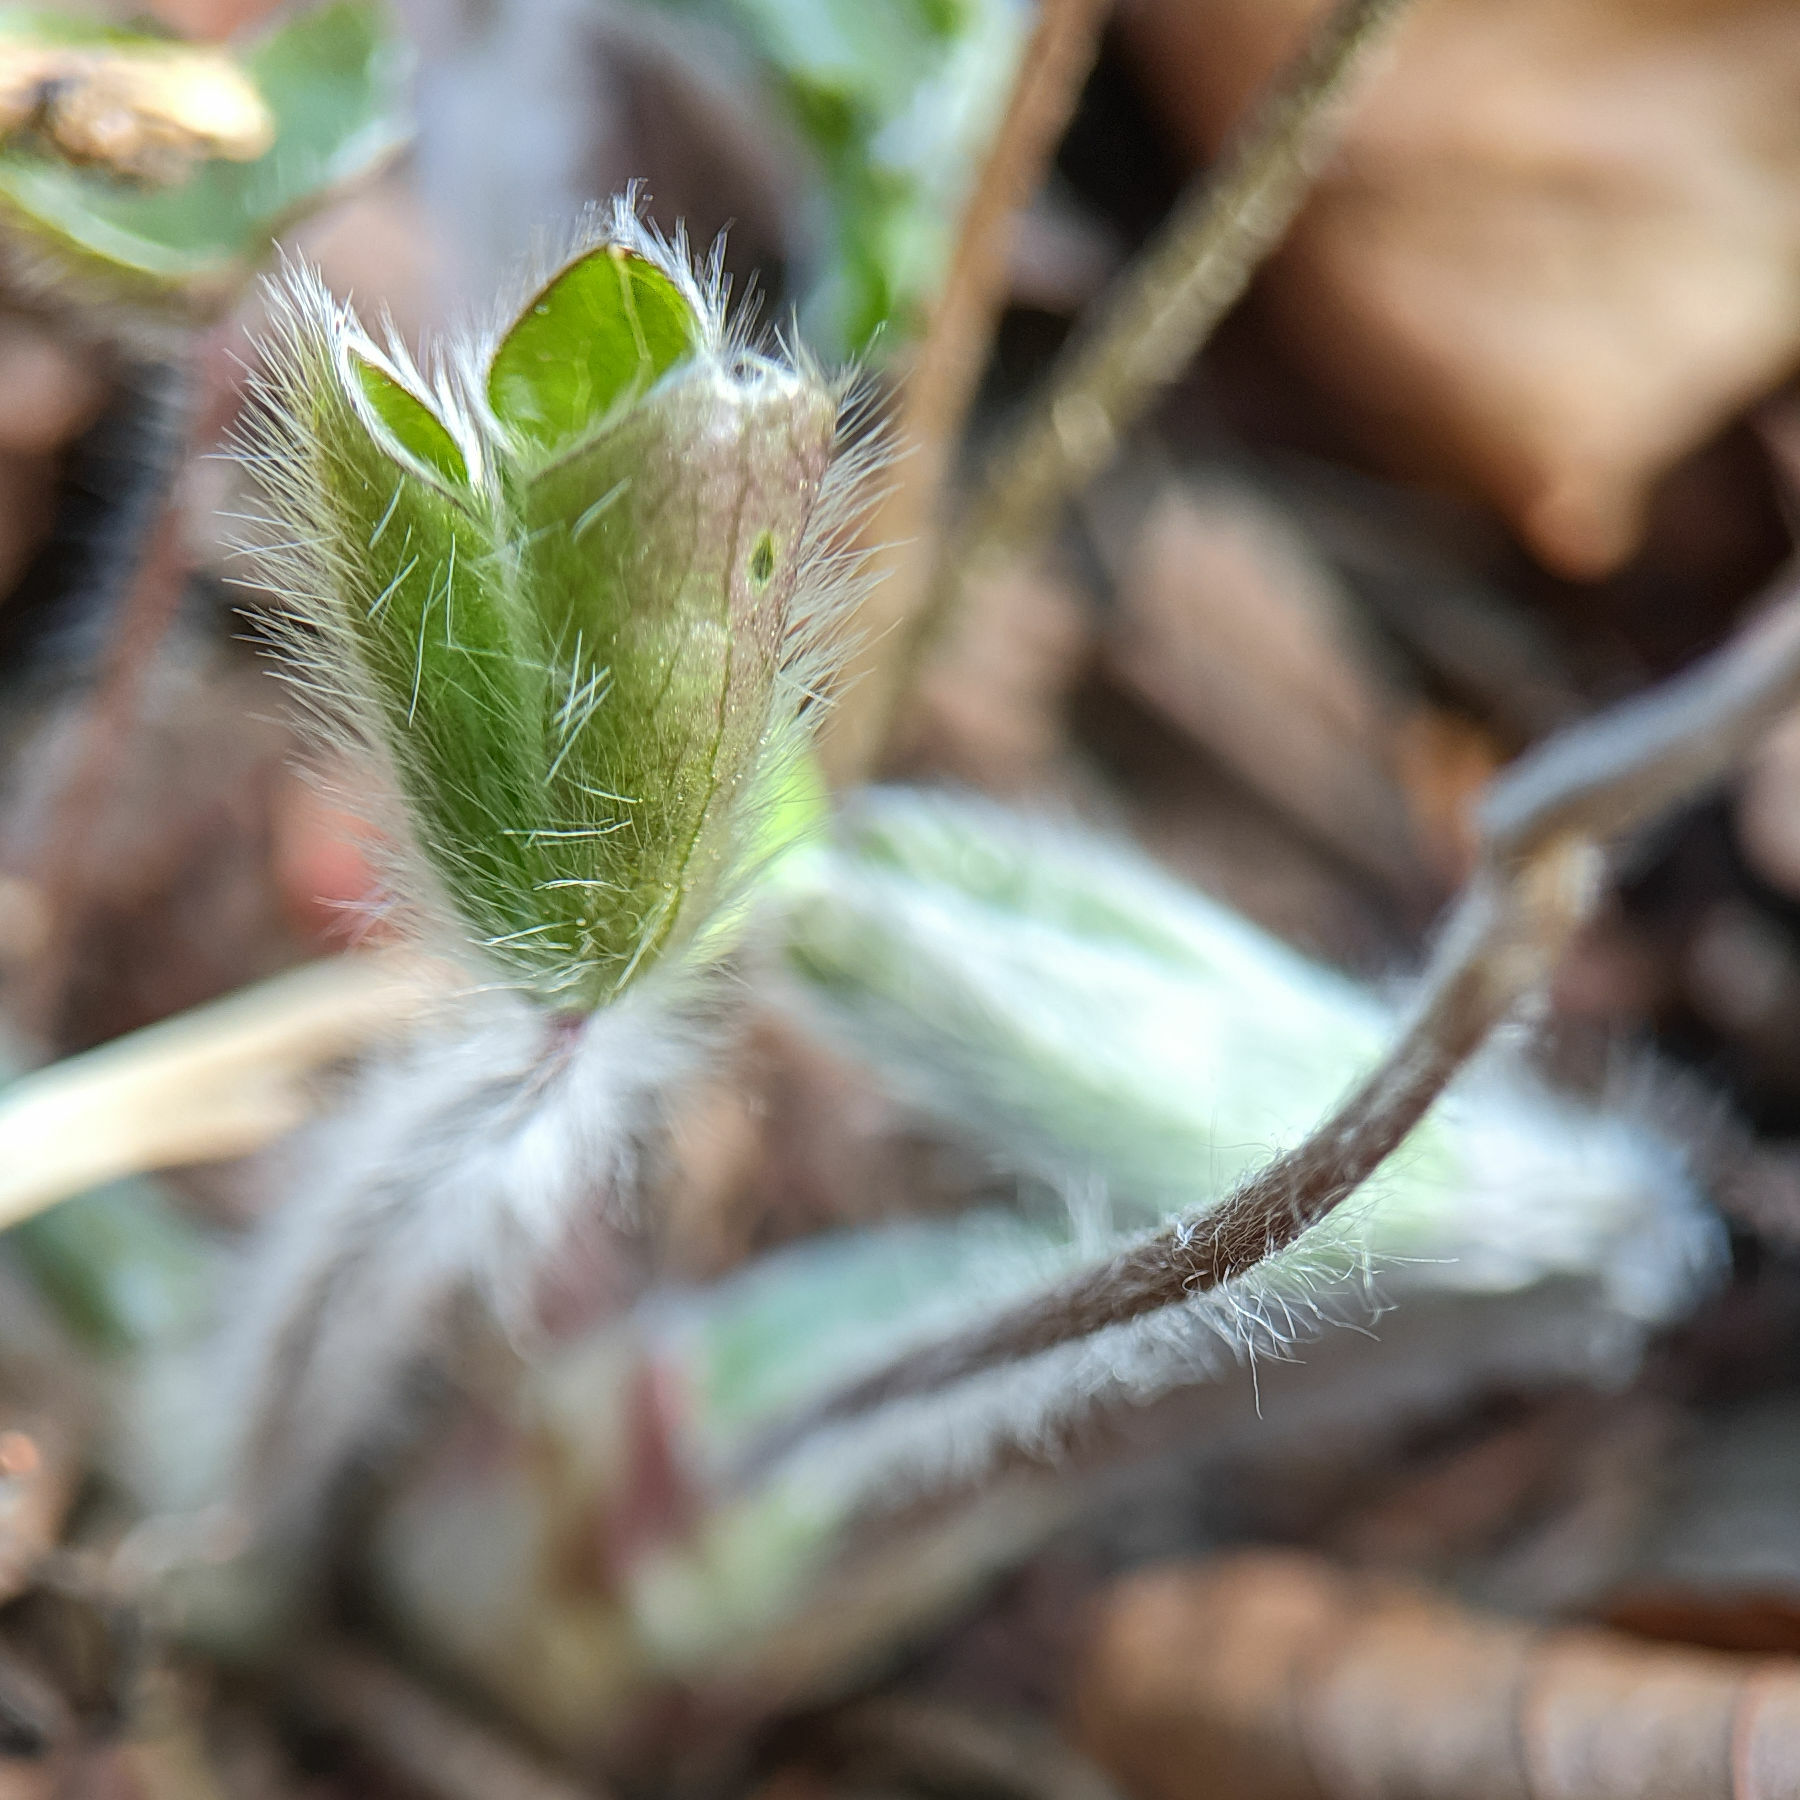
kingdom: Plantae
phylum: Tracheophyta
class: Magnoliopsida
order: Ranunculales
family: Ranunculaceae
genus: Hepatica
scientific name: Hepatica nobilis
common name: Liverleaf
